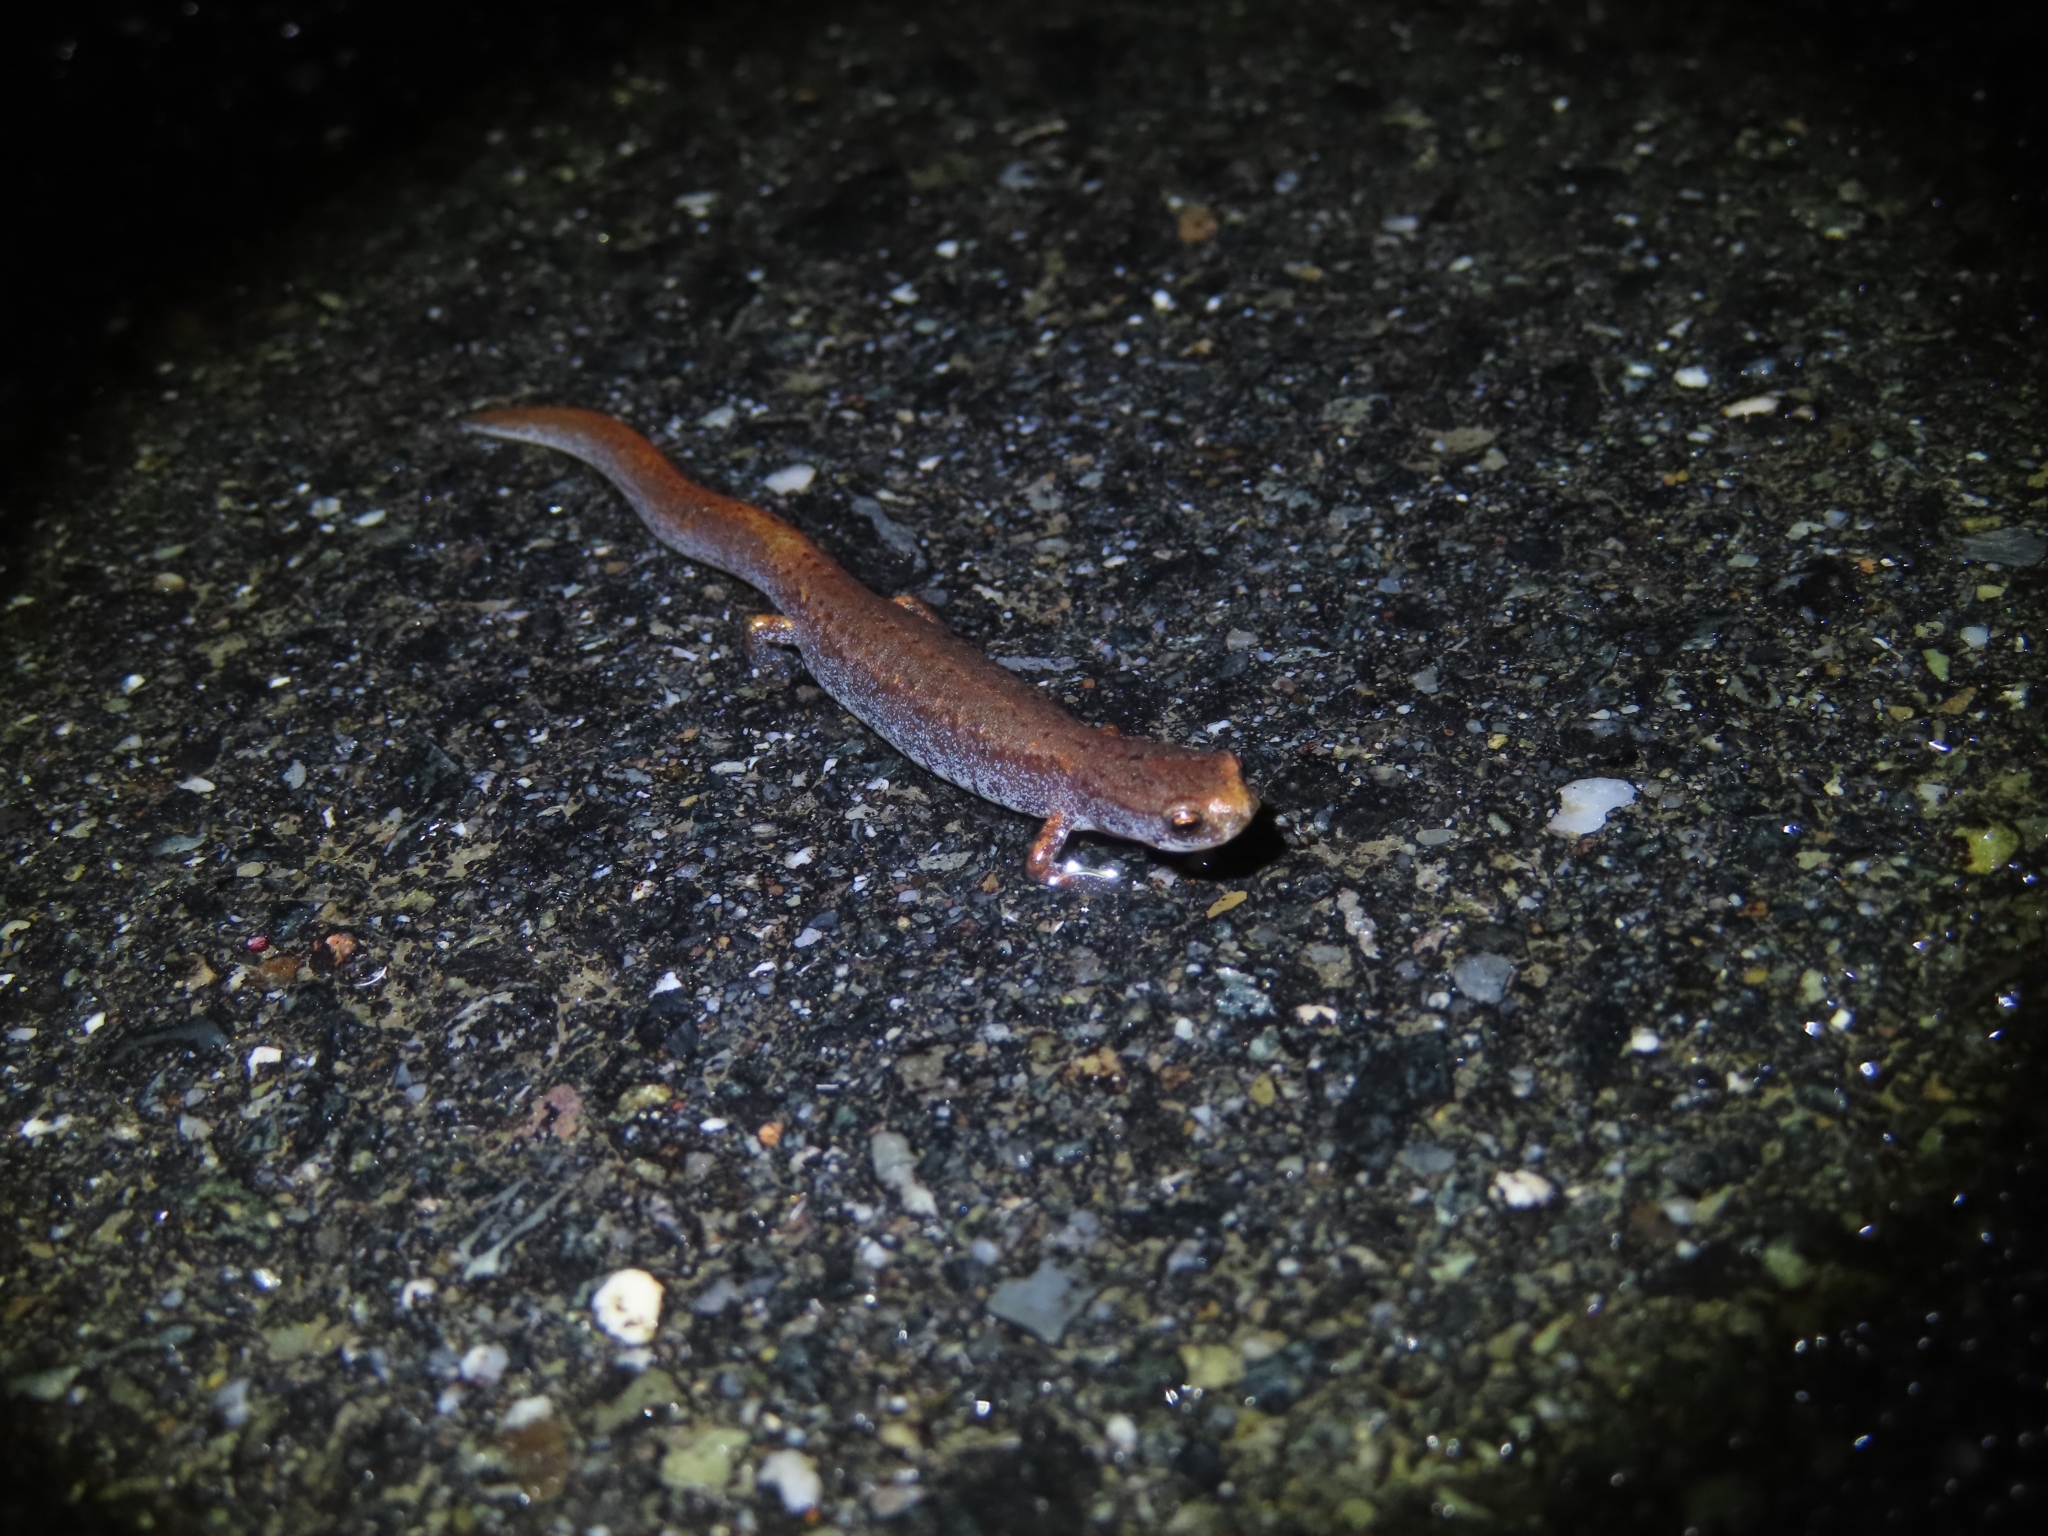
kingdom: Animalia
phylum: Chordata
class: Amphibia
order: Caudata
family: Plethodontidae
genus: Hemidactylium
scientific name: Hemidactylium scutatum
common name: Four-toed salamander
